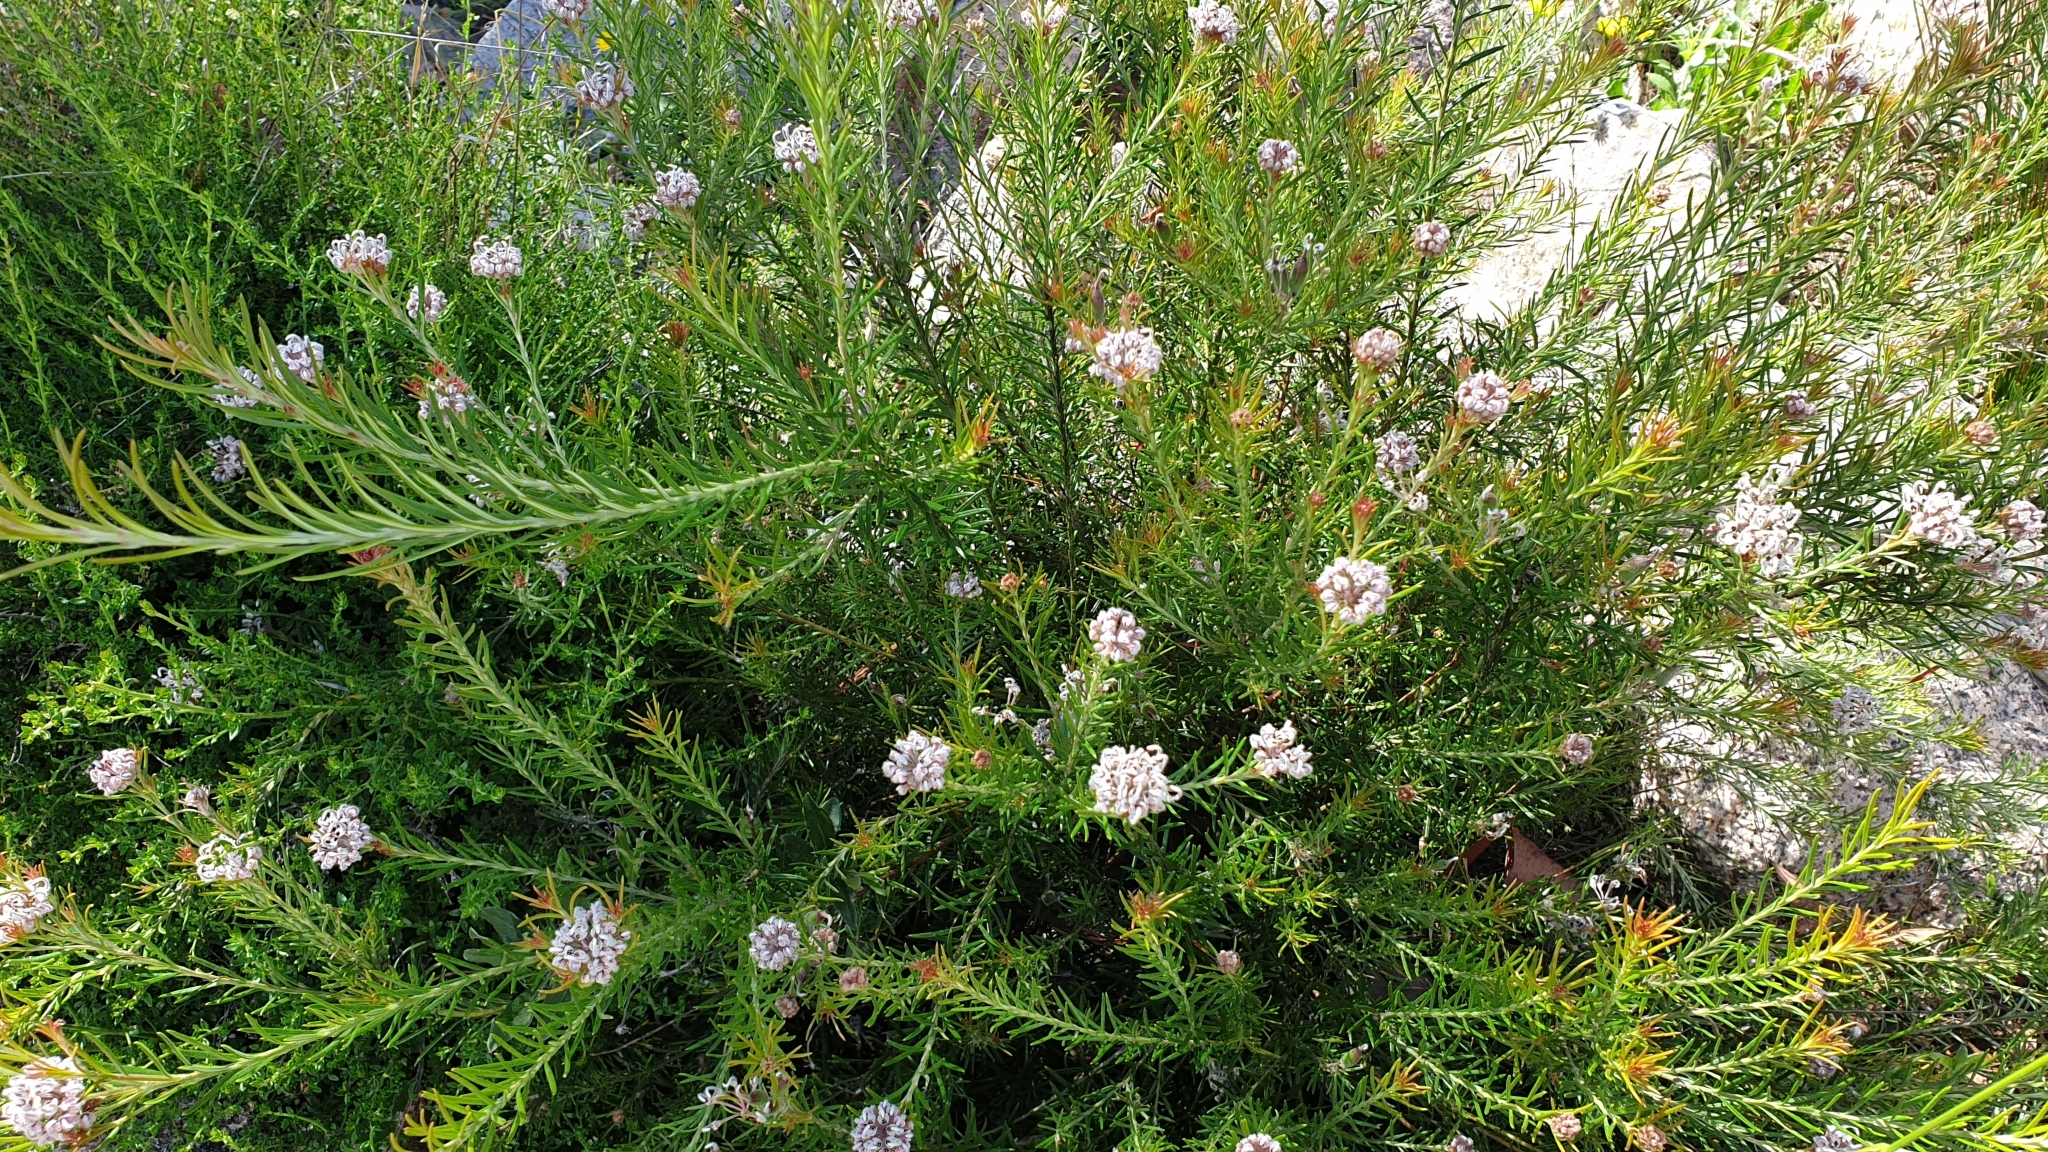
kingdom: Plantae
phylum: Tracheophyta
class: Magnoliopsida
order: Proteales
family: Proteaceae
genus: Grevillea
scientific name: Grevillea acerata
